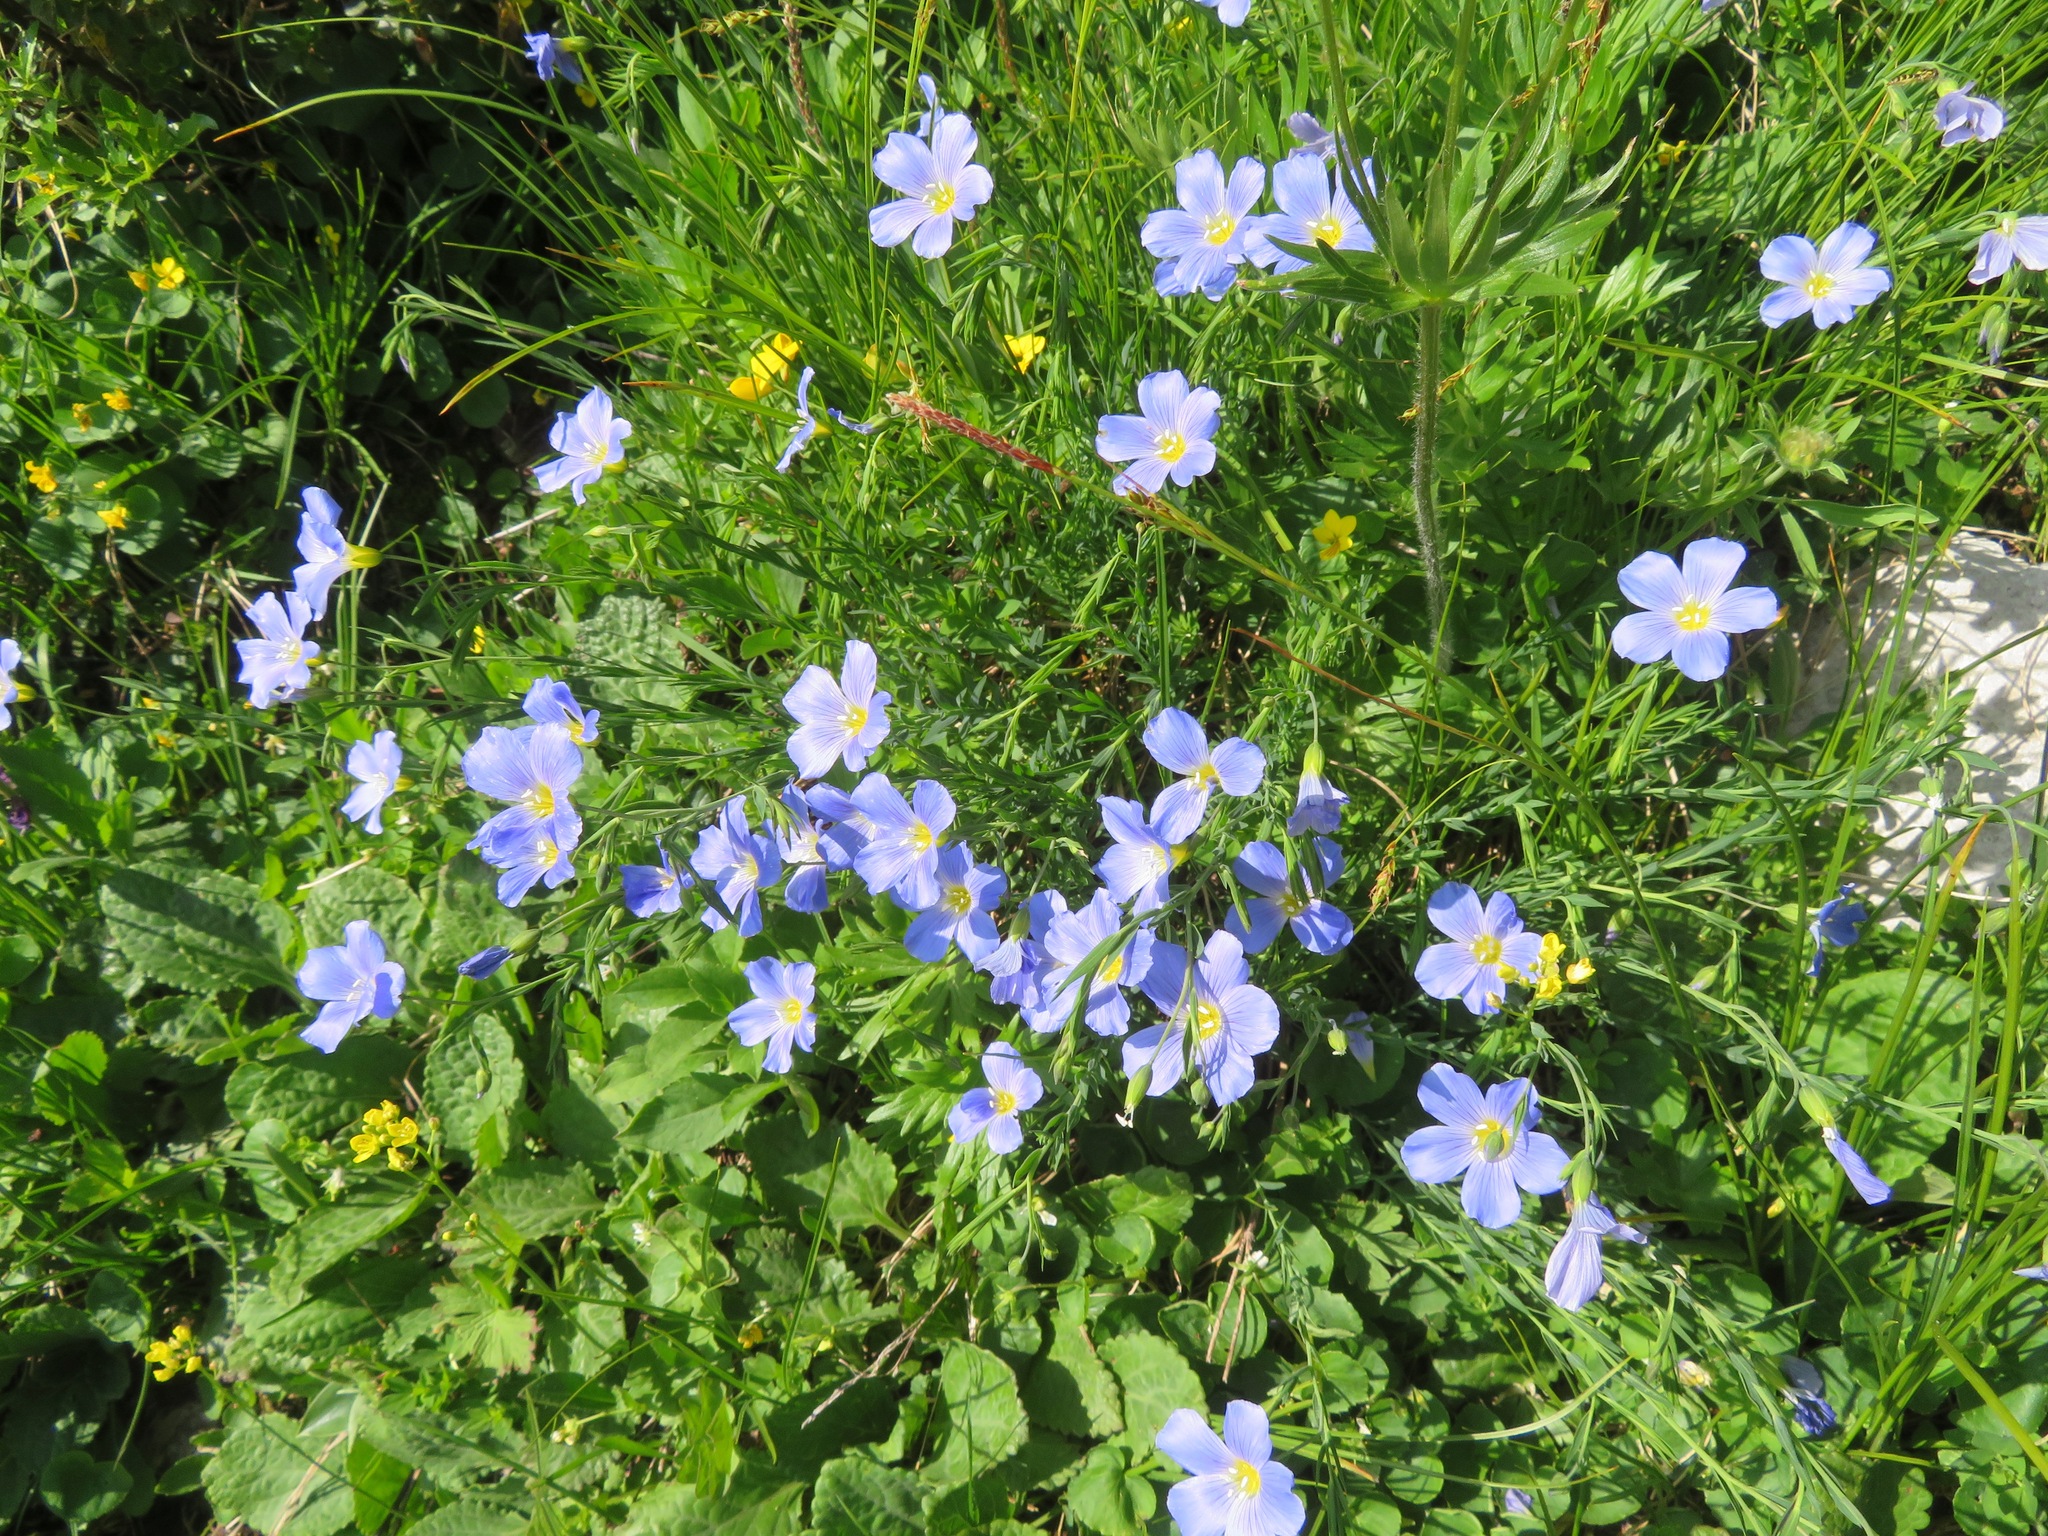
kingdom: Plantae
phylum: Tracheophyta
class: Magnoliopsida
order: Malpighiales
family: Linaceae
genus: Linum
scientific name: Linum alpinum
